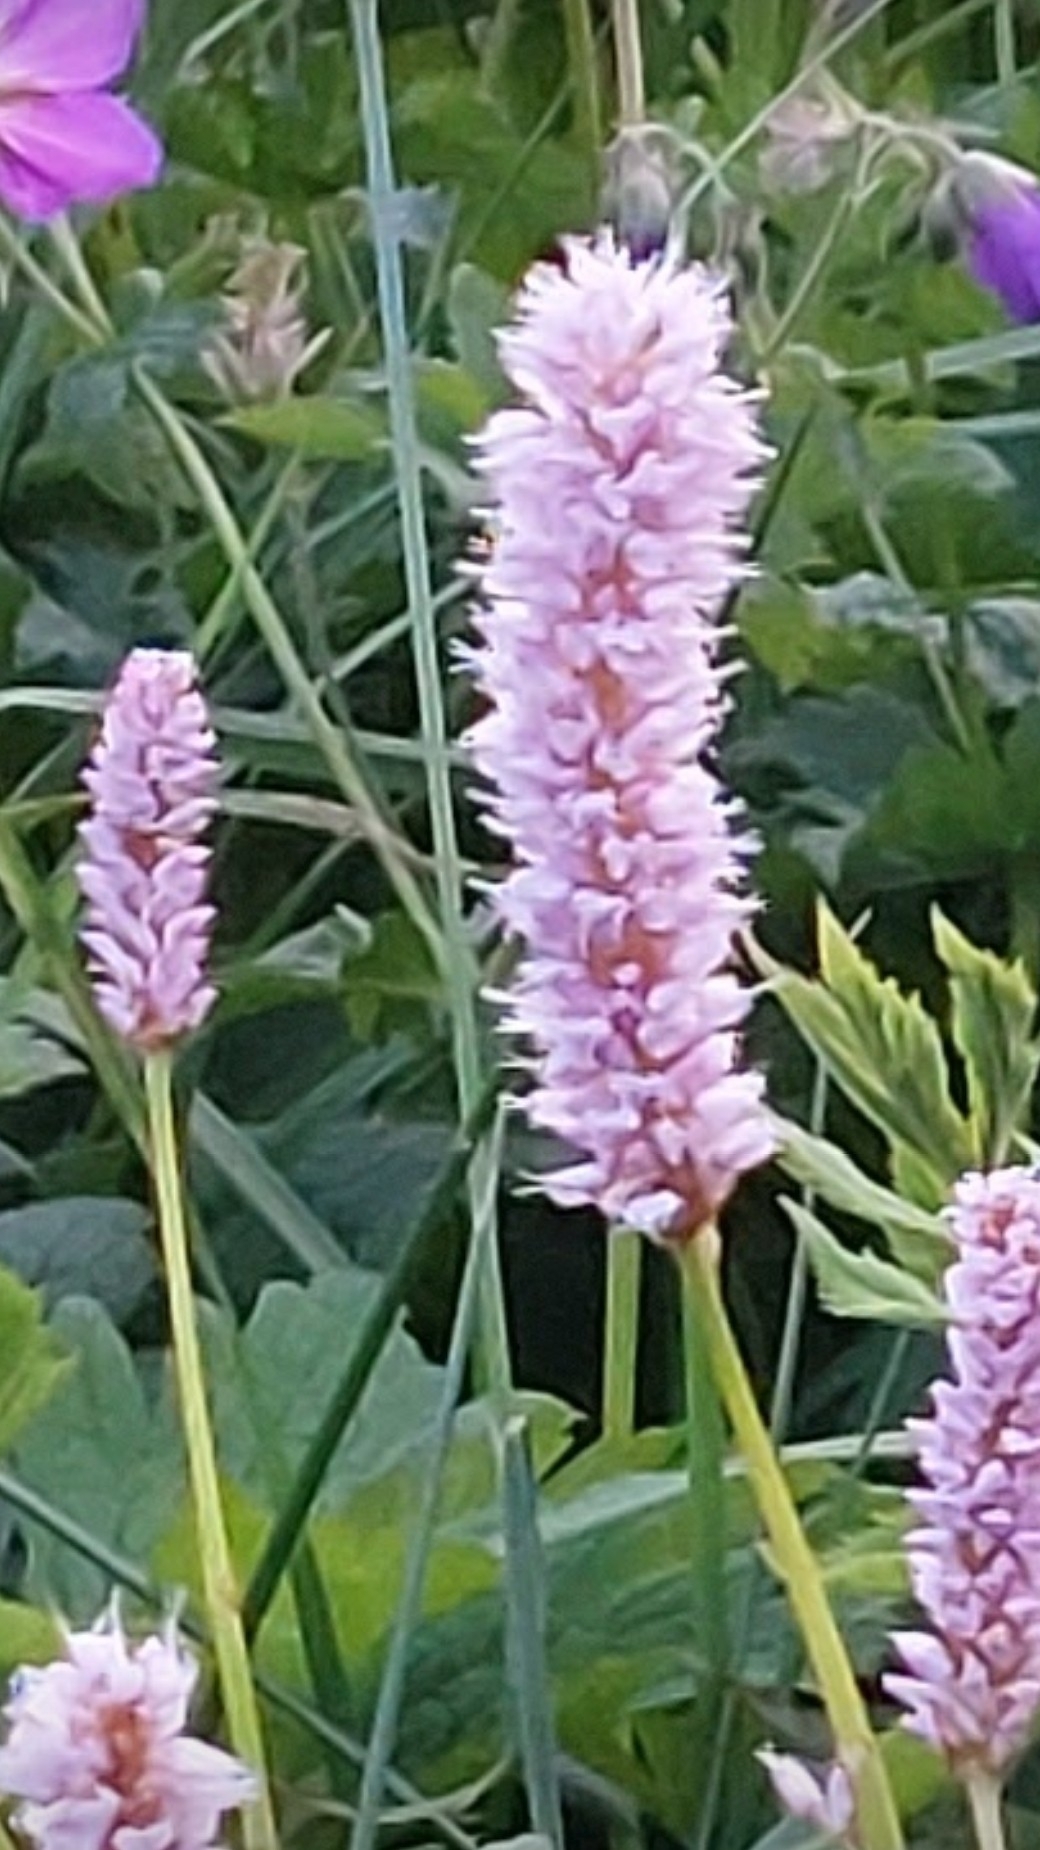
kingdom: Plantae
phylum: Tracheophyta
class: Magnoliopsida
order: Caryophyllales
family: Polygonaceae
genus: Bistorta
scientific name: Bistorta officinalis
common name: Common bistort
